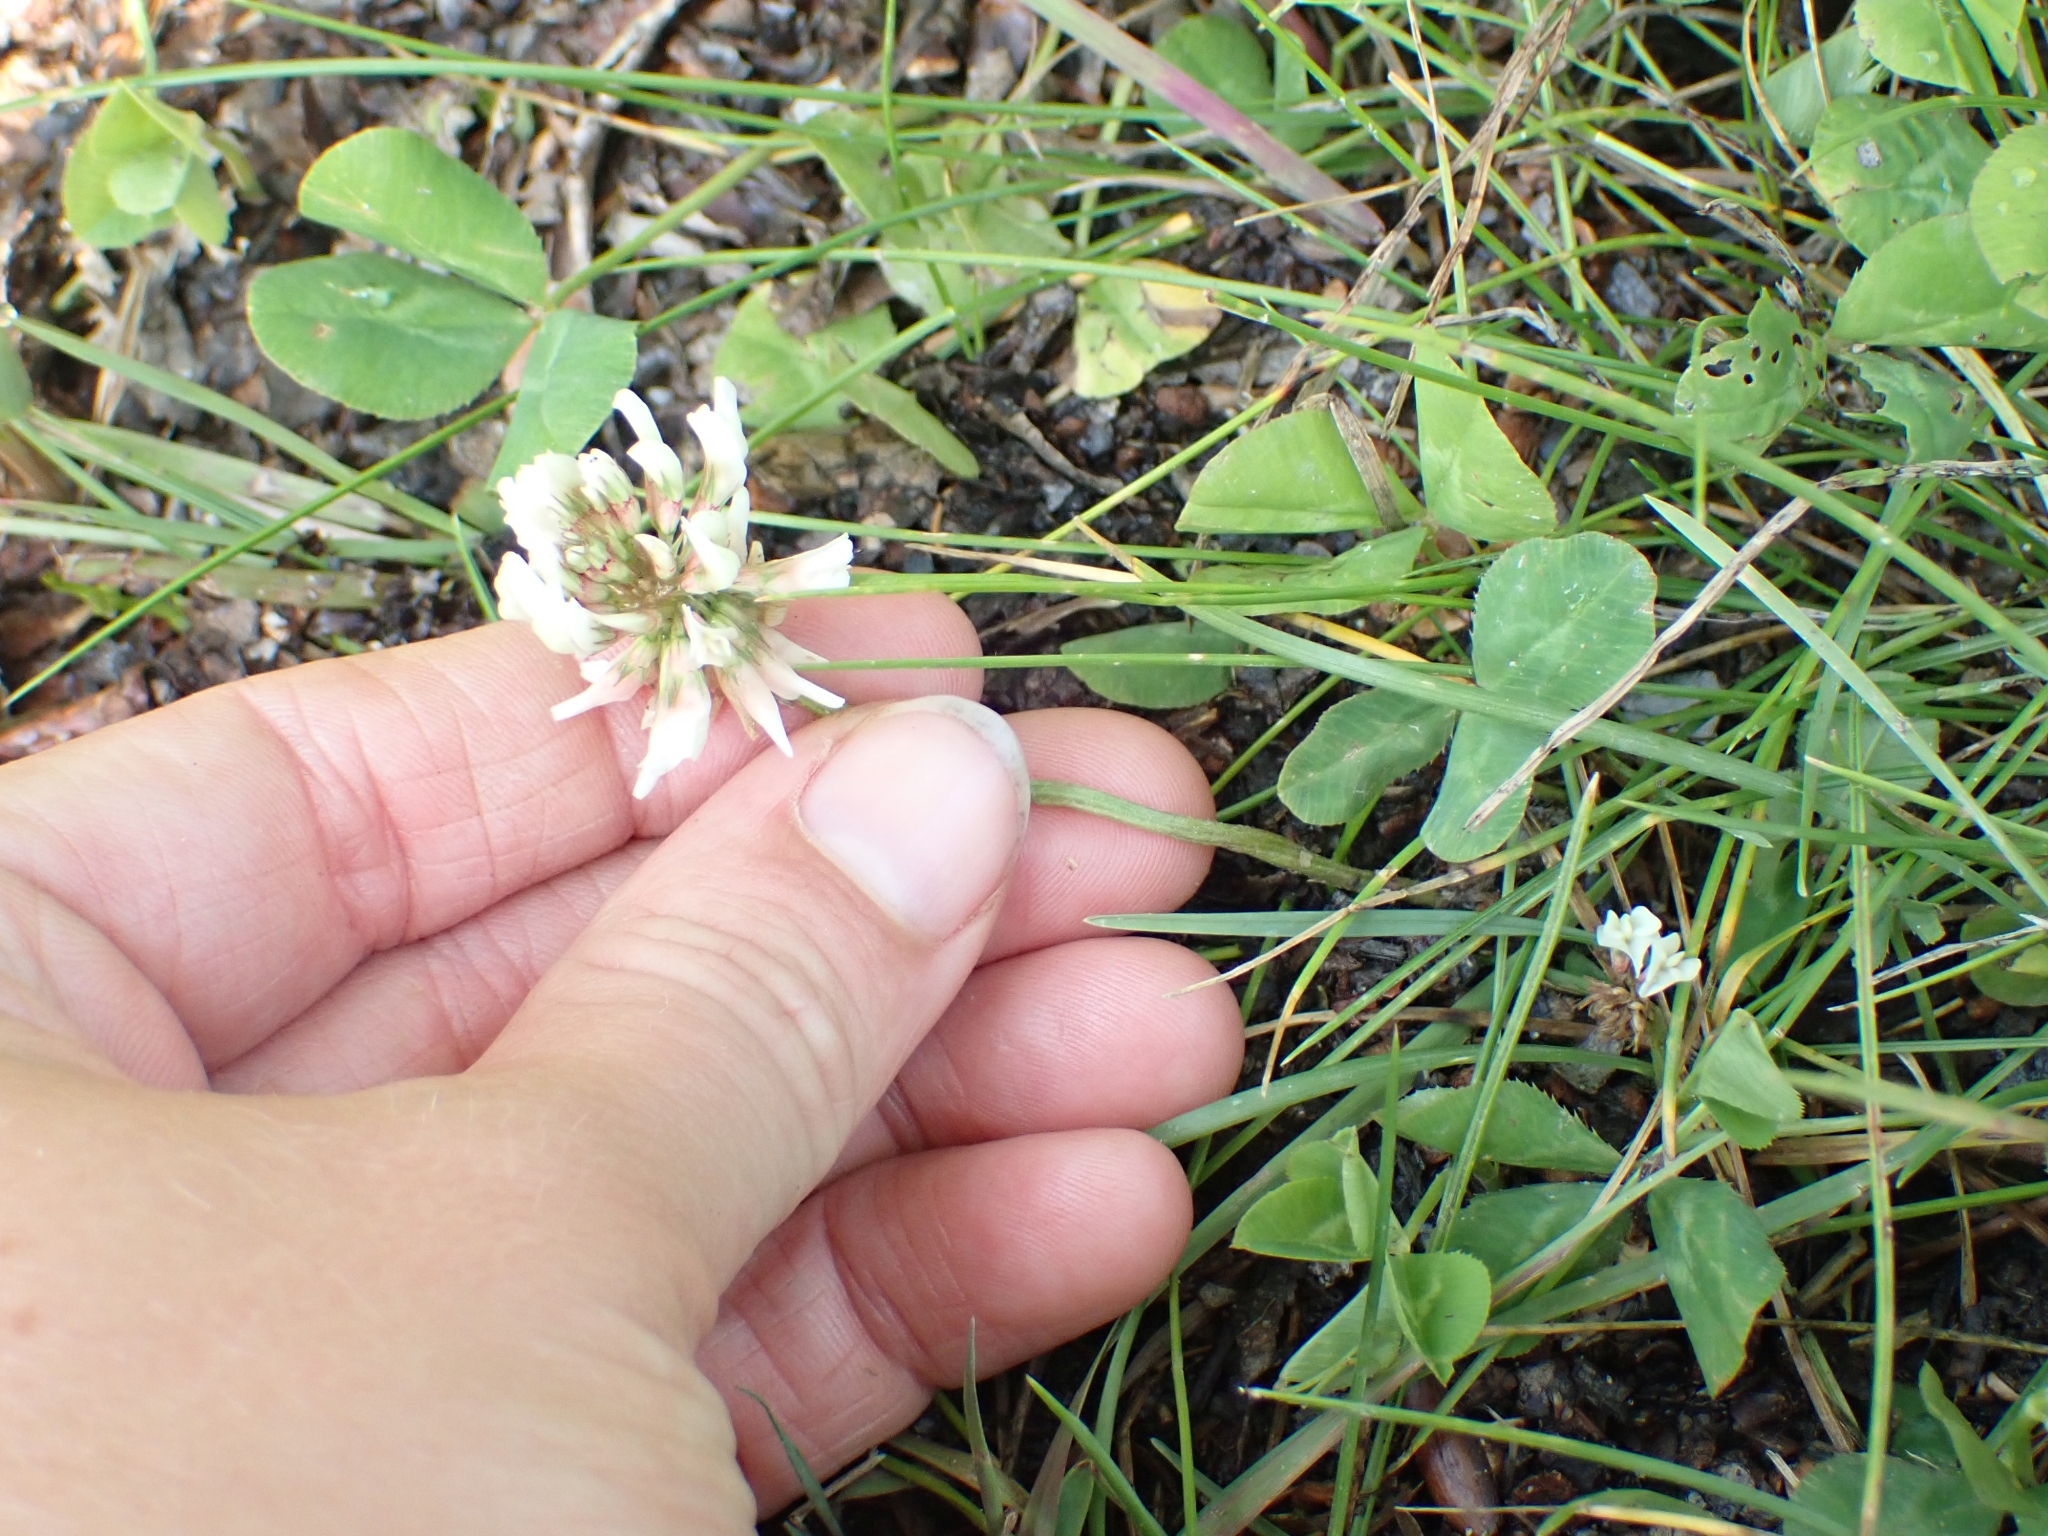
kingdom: Plantae
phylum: Tracheophyta
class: Magnoliopsida
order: Fabales
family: Fabaceae
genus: Trifolium
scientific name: Trifolium repens
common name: White clover
